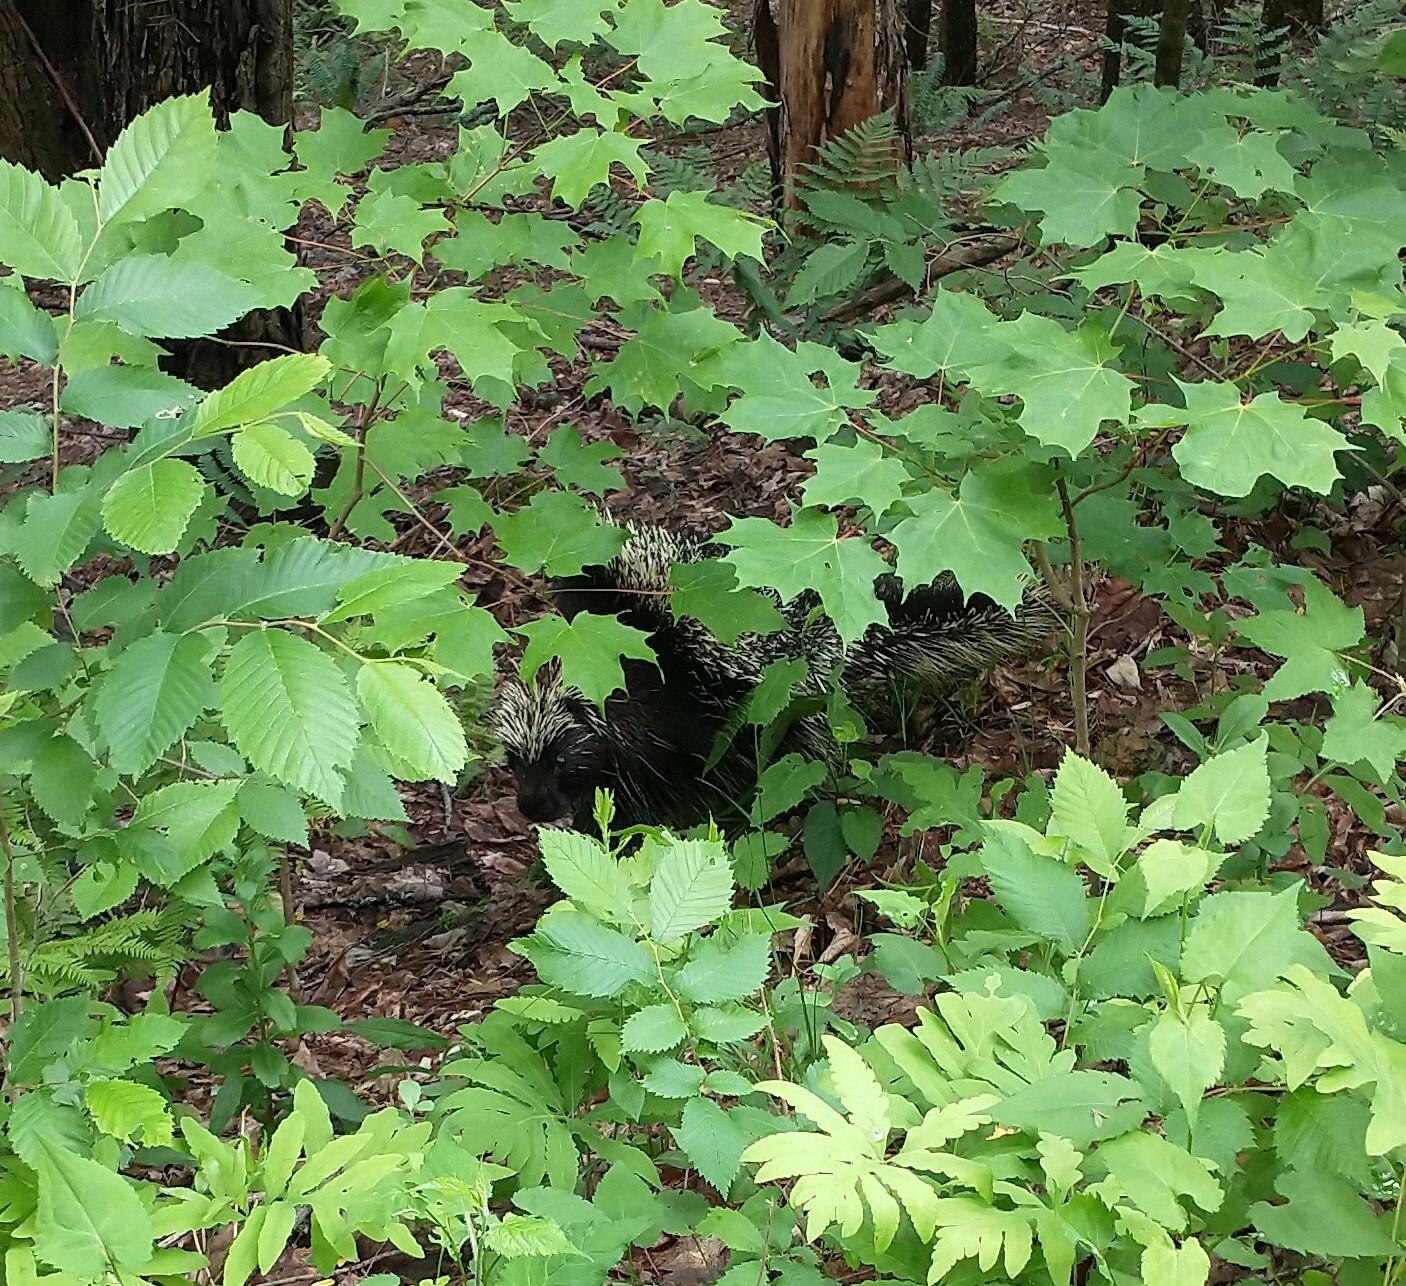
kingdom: Animalia
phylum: Chordata
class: Mammalia
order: Rodentia
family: Erethizontidae
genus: Erethizon
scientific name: Erethizon dorsatus
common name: North american porcupine
